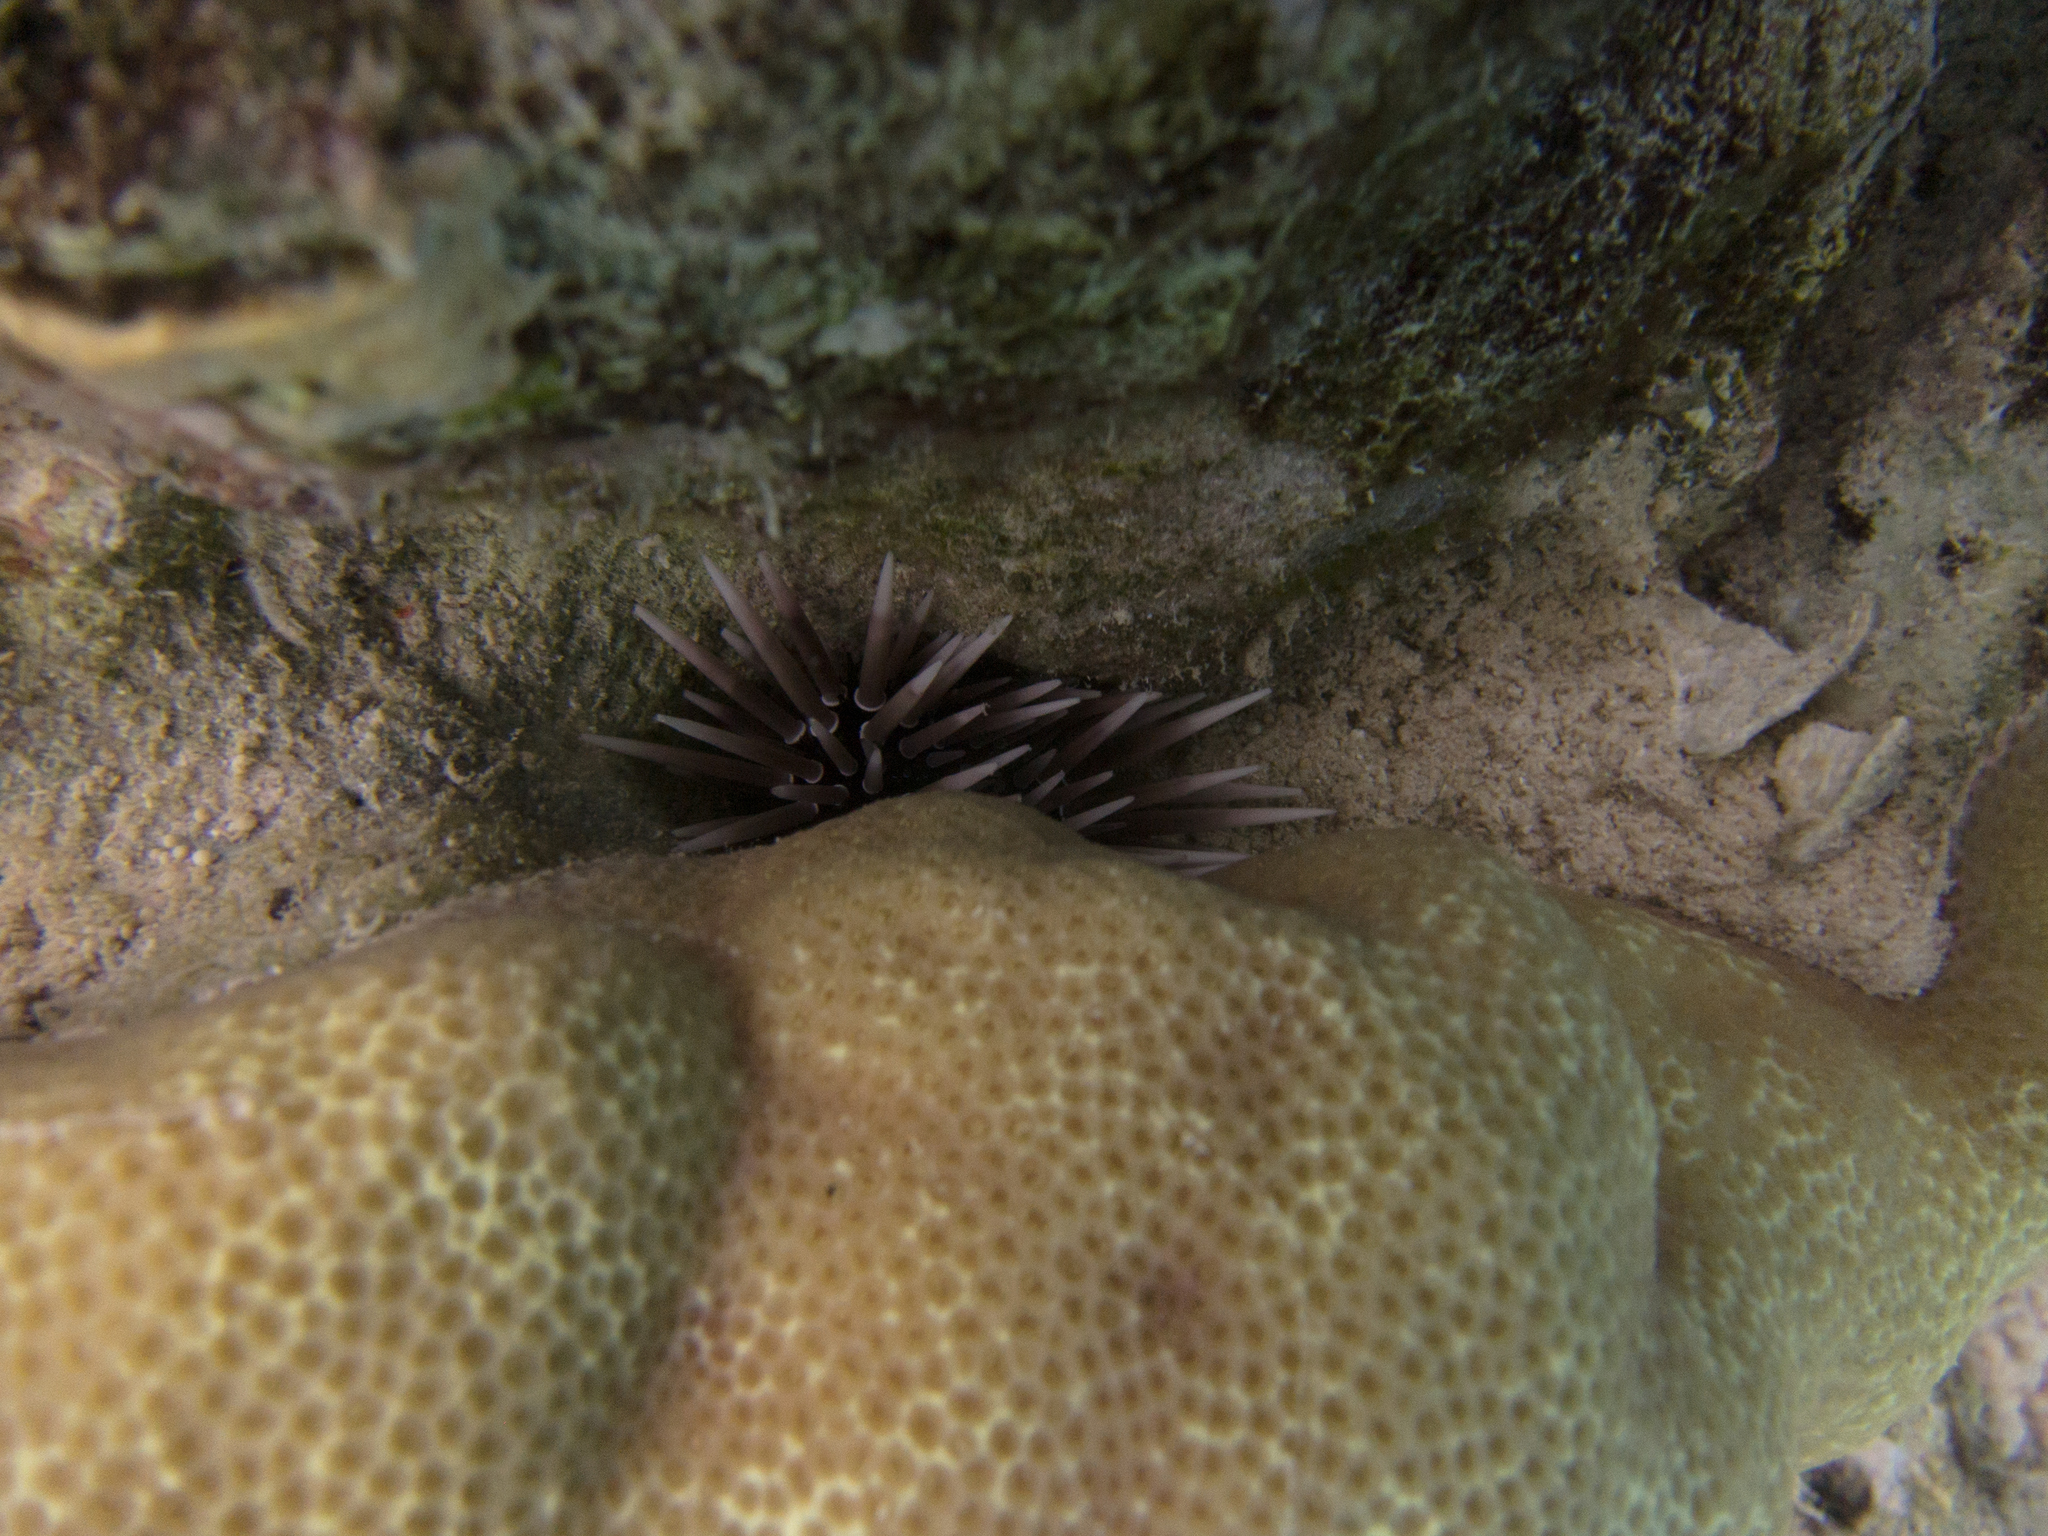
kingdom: Animalia
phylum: Echinodermata
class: Echinoidea
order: Camarodonta
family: Echinometridae
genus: Echinometra
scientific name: Echinometra mathaei
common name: Rock-boring urchin
